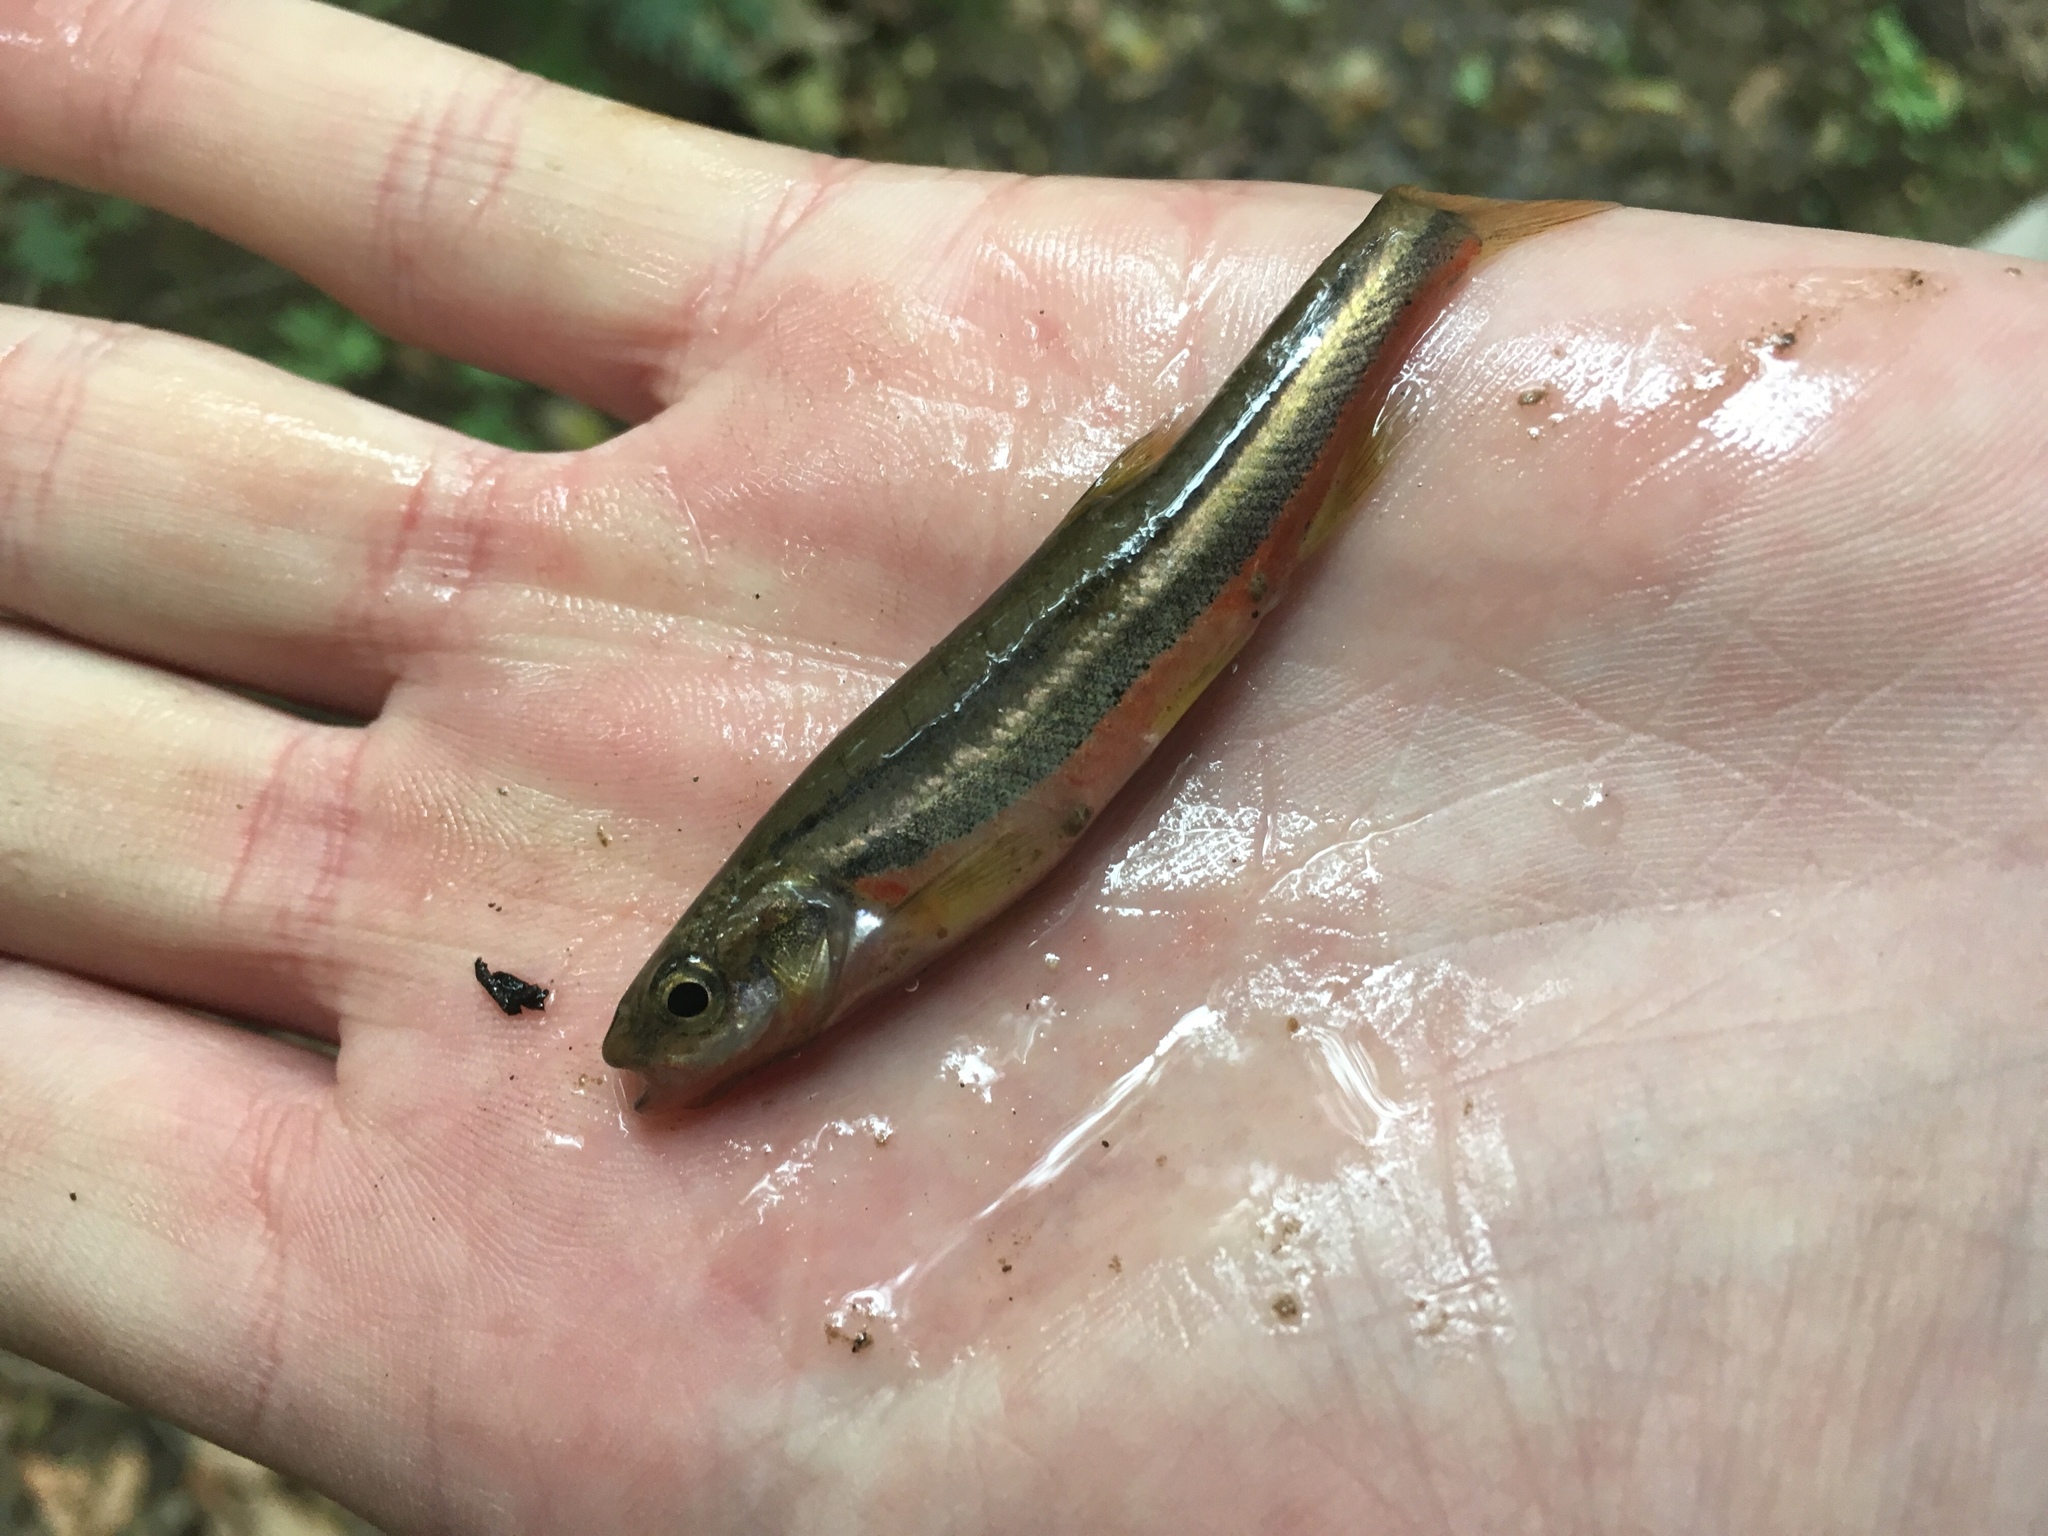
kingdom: Animalia
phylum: Chordata
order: Cypriniformes
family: Cyprinidae
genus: Chrosomus
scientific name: Chrosomus erythrogaster
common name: Southern redbelly dace
